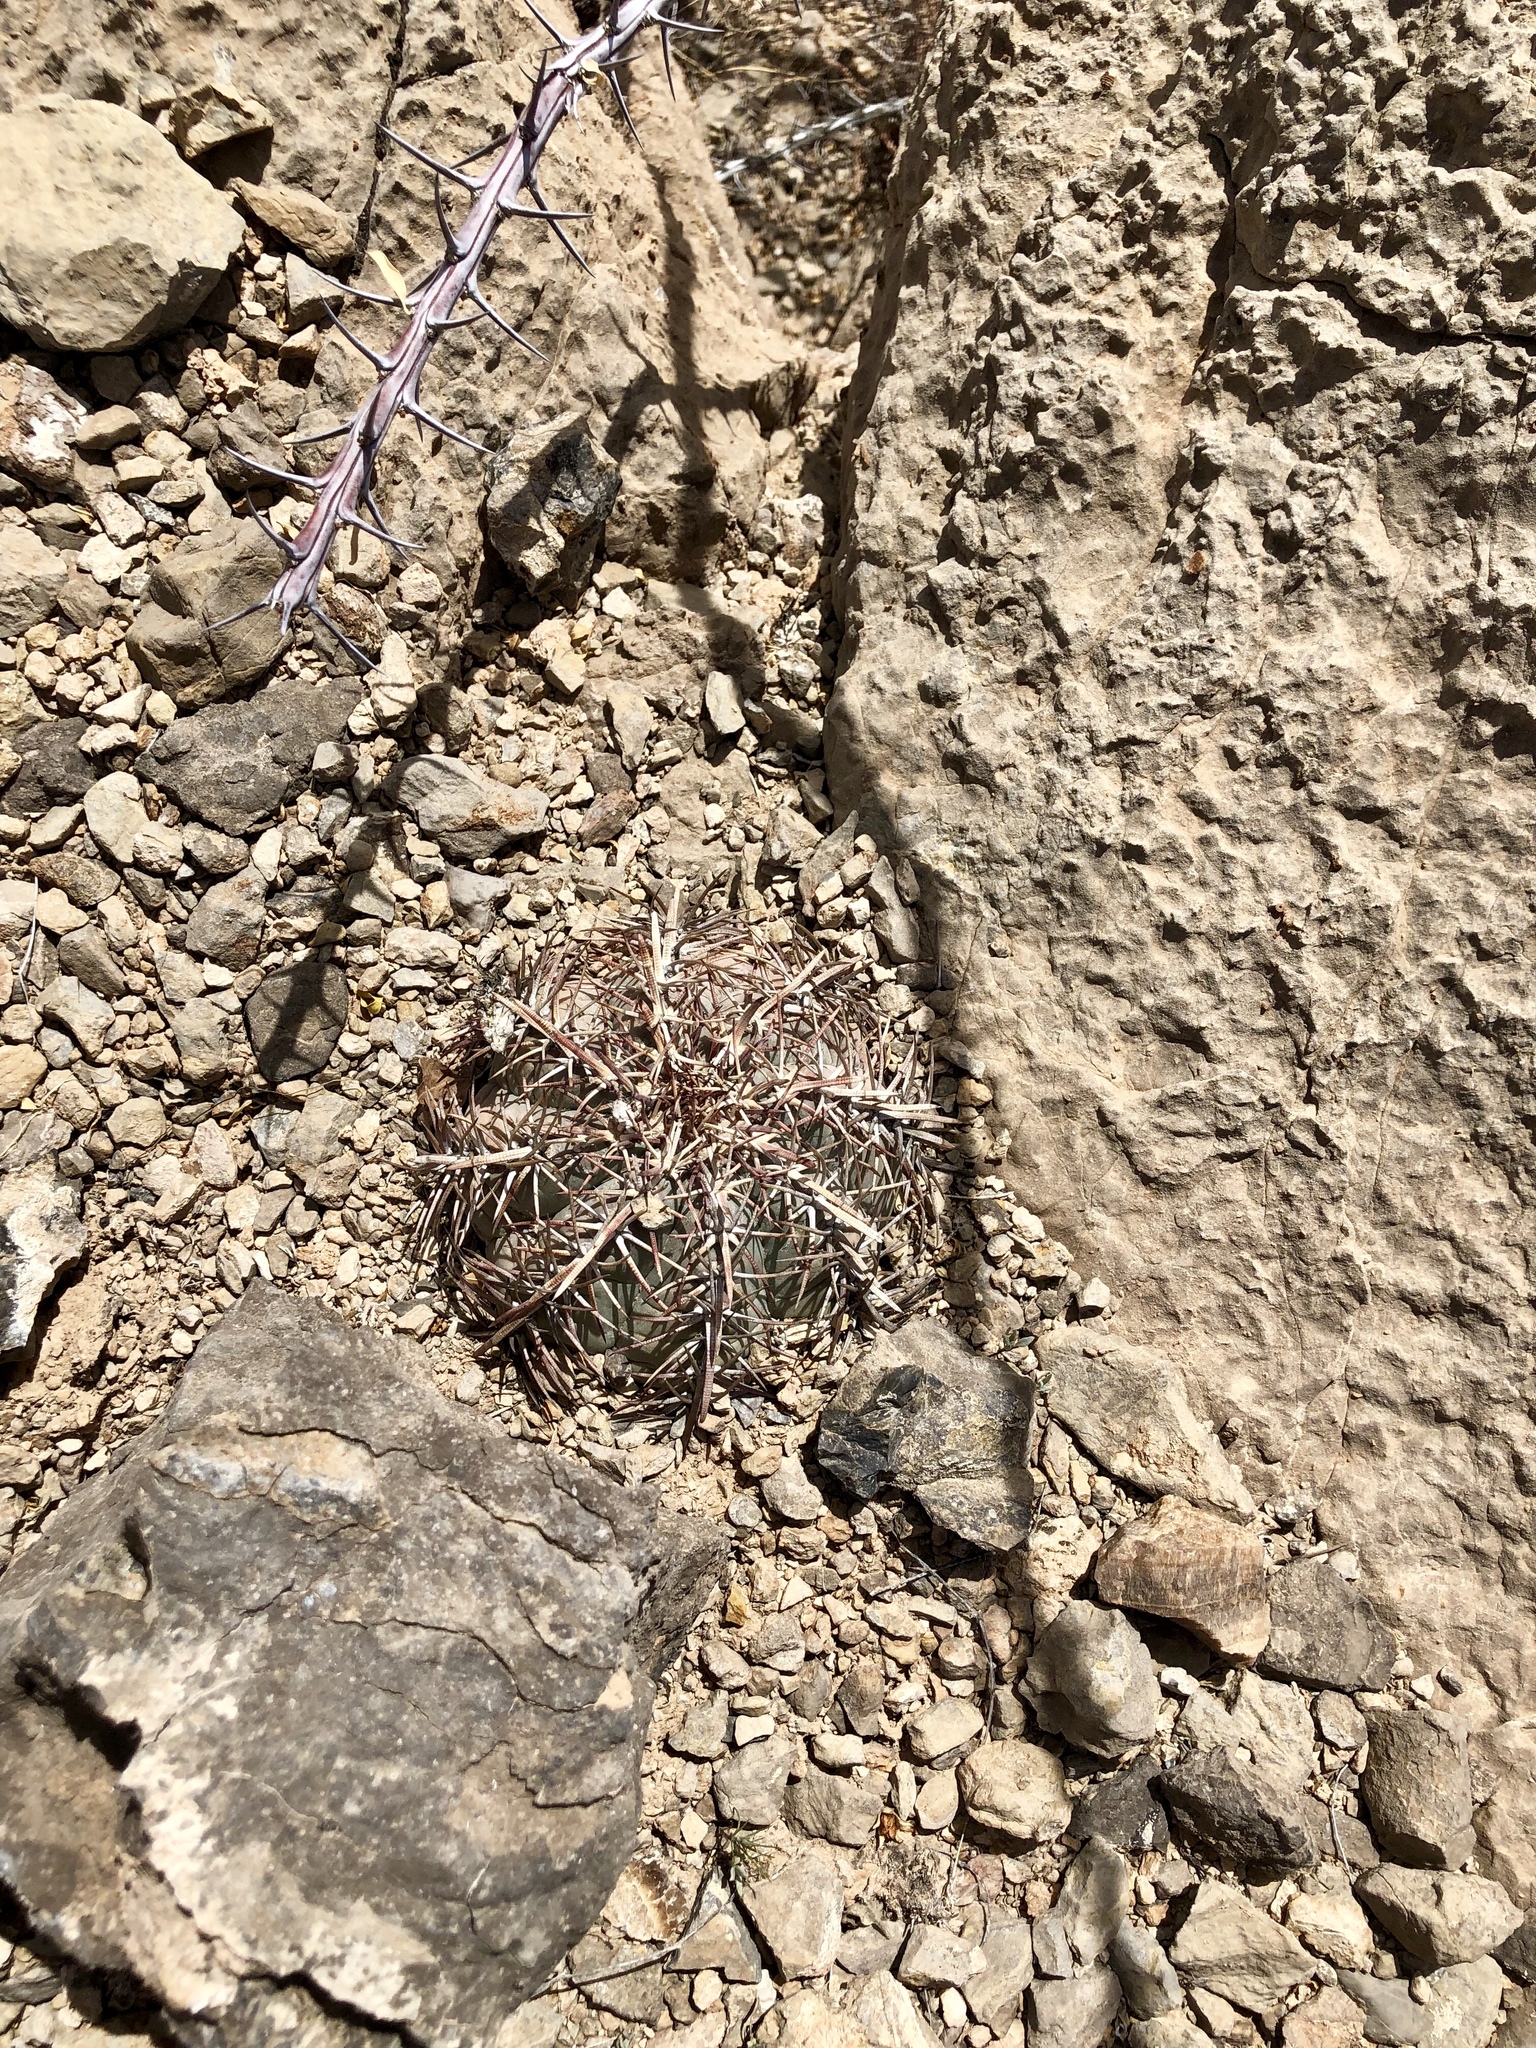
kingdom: Plantae
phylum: Tracheophyta
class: Magnoliopsida
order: Caryophyllales
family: Cactaceae
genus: Echinocactus
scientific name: Echinocactus horizonthalonius
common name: Devilshead
